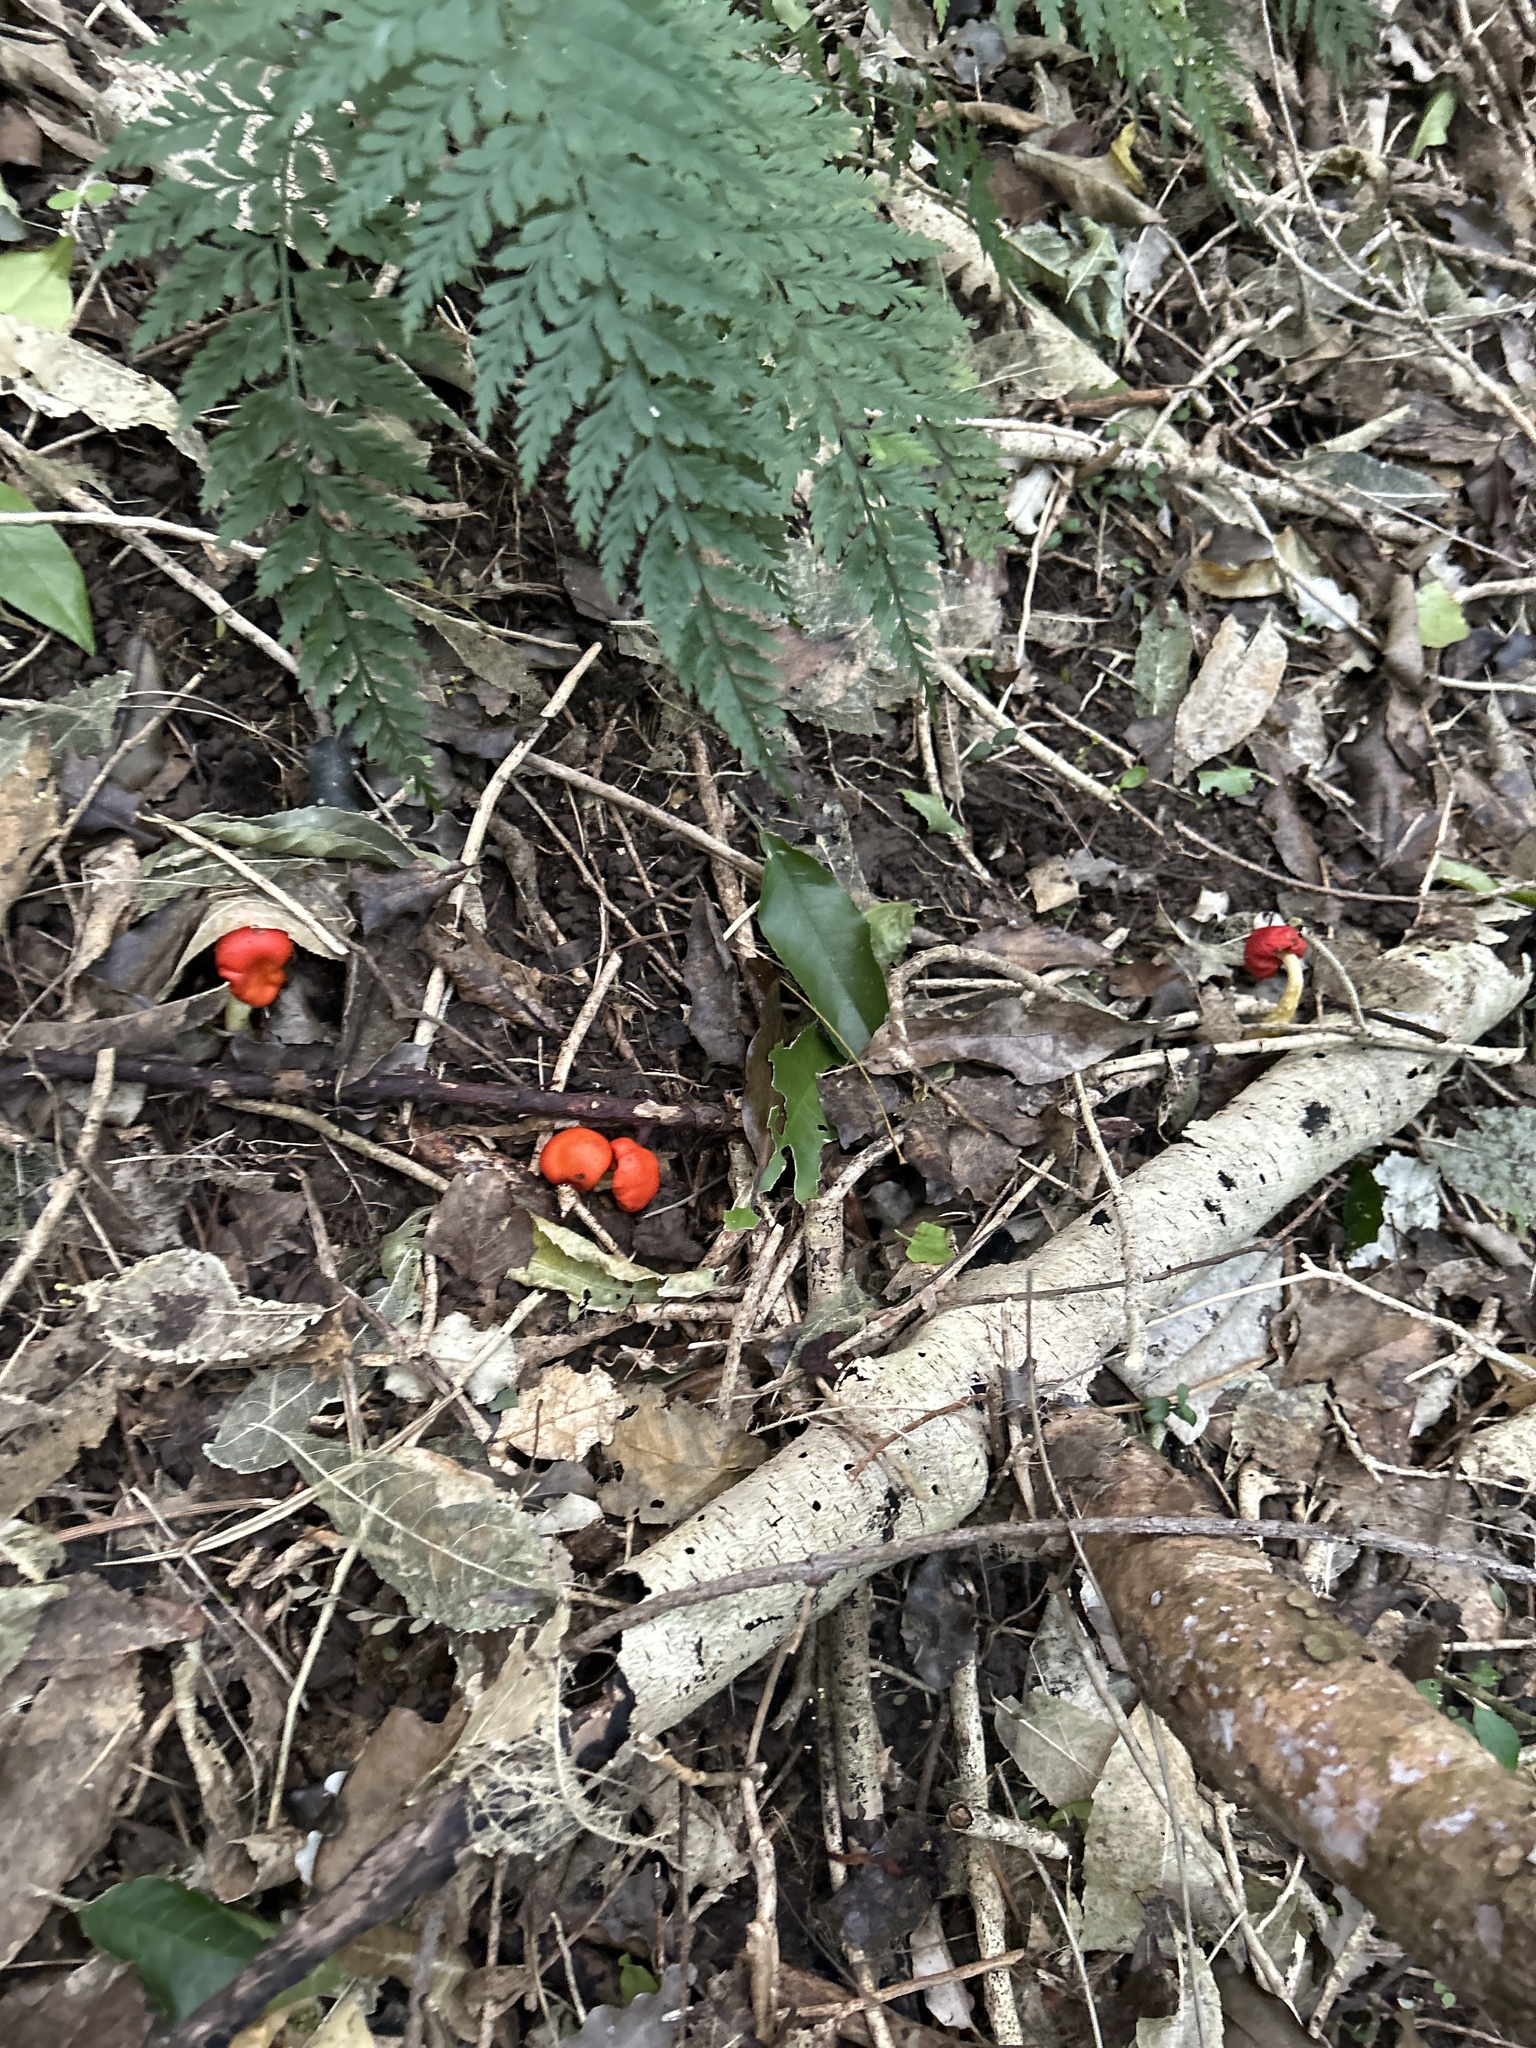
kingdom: Fungi
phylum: Basidiomycota
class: Agaricomycetes
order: Agaricales
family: Strophariaceae
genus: Leratiomyces
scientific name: Leratiomyces erythrocephalus
